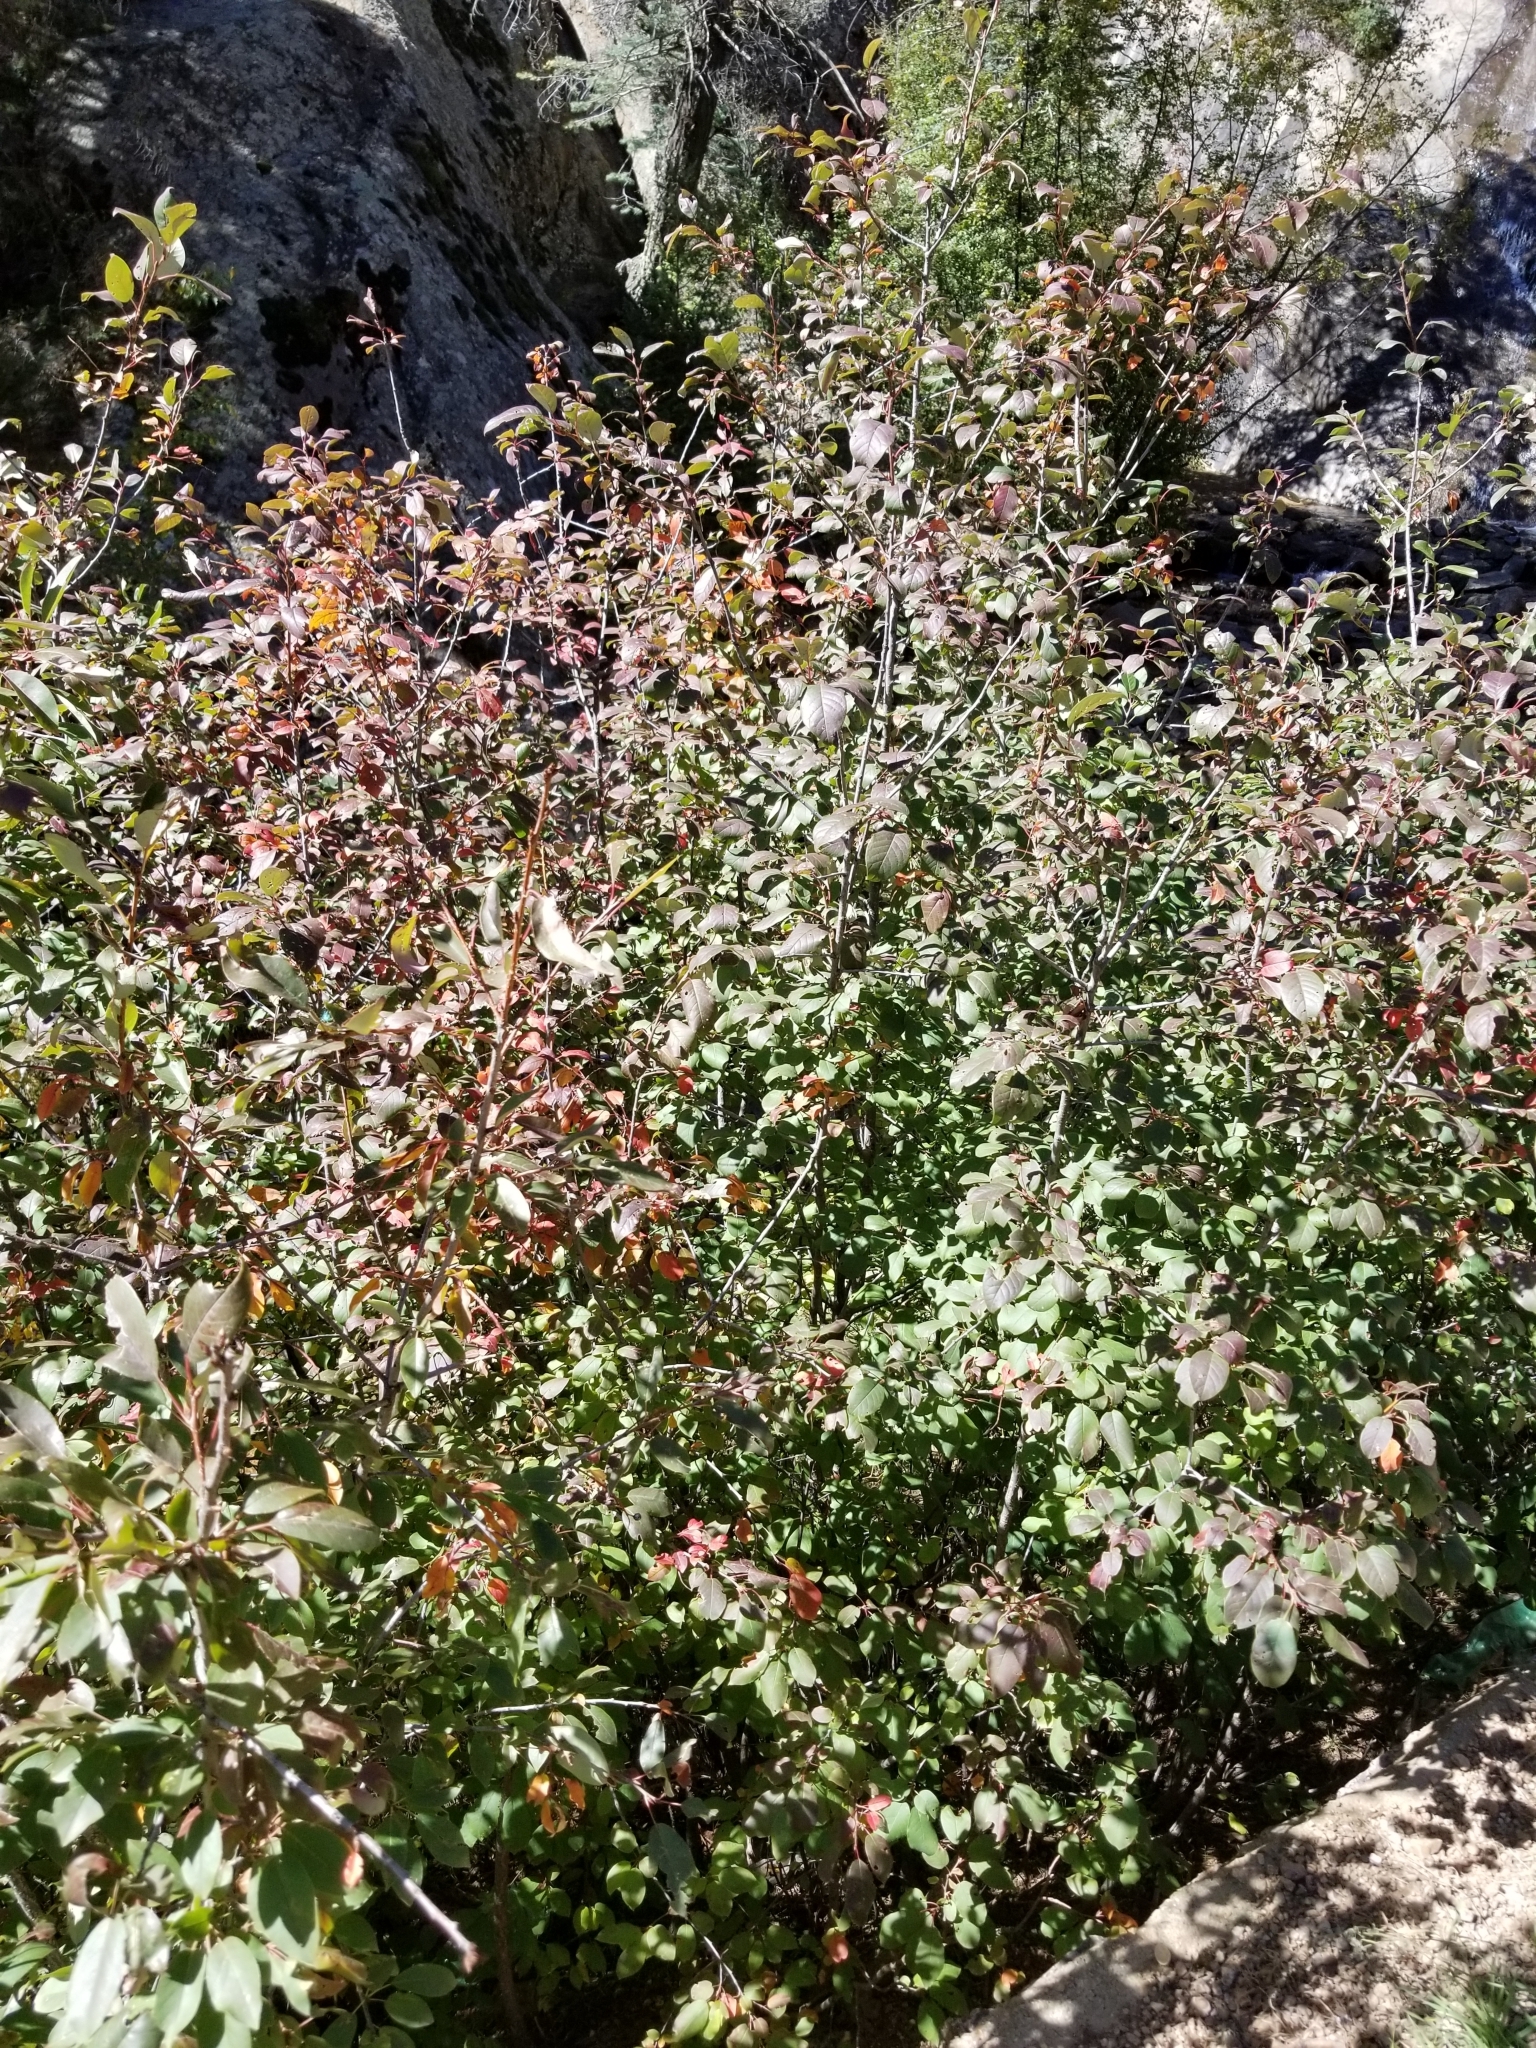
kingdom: Plantae
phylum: Tracheophyta
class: Magnoliopsida
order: Rosales
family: Rosaceae
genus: Prunus
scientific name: Prunus virginiana
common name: Chokecherry
